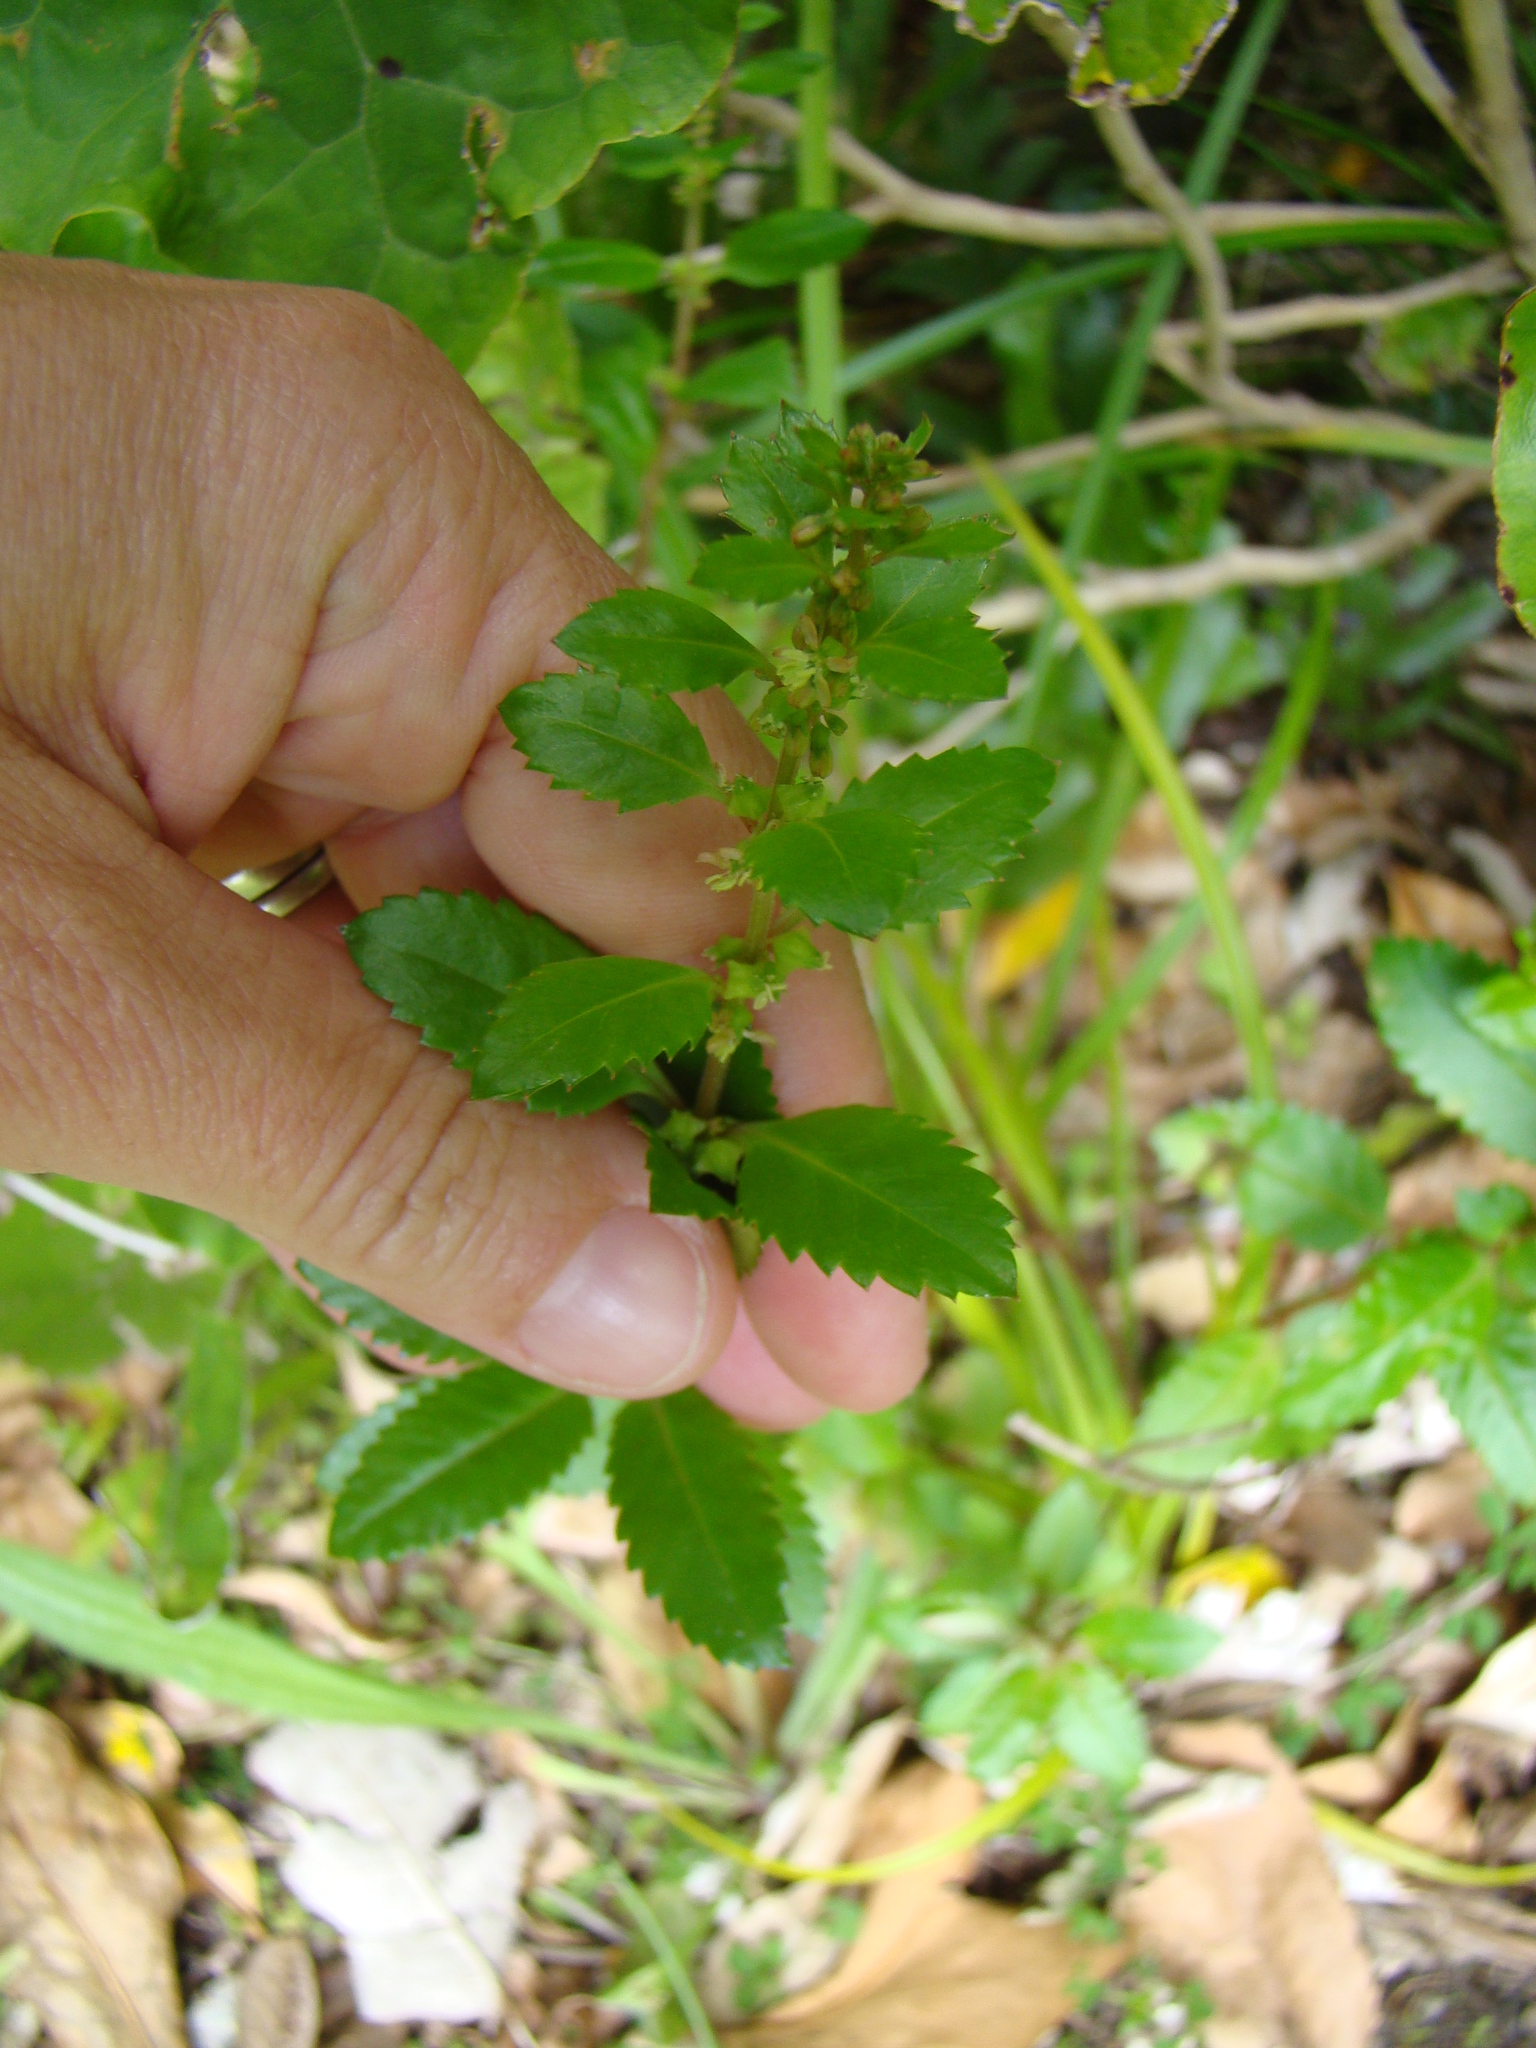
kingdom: Plantae
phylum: Tracheophyta
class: Magnoliopsida
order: Saxifragales
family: Haloragaceae
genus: Haloragis
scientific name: Haloragis erecta
